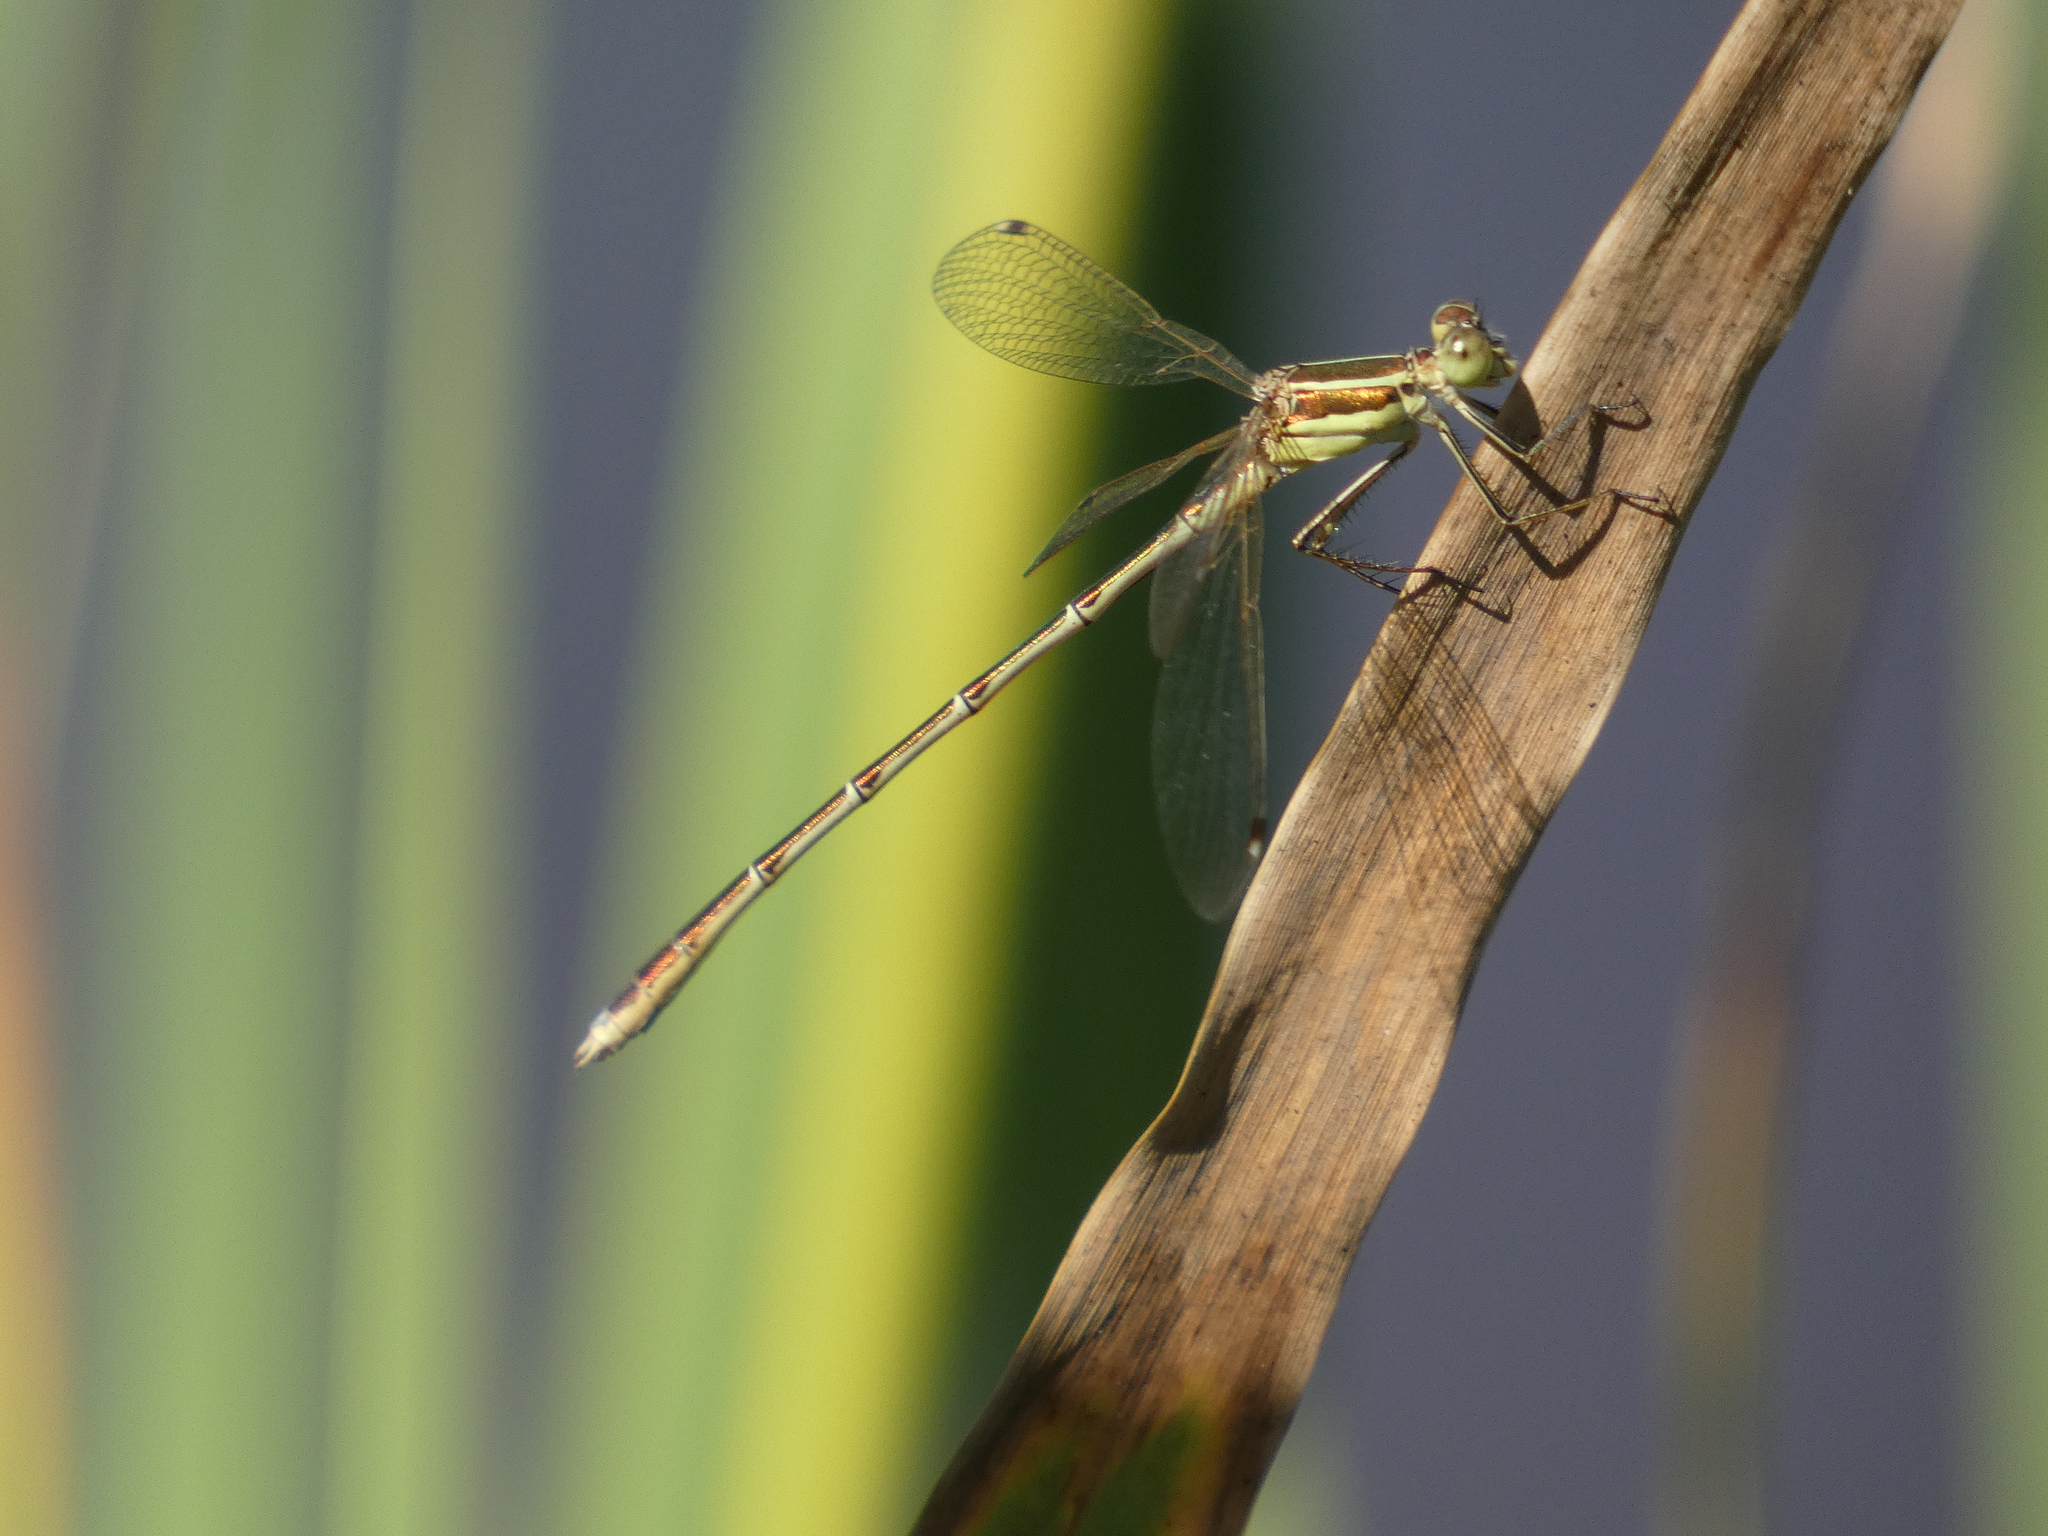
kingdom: Animalia
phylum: Arthropoda
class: Insecta
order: Odonata
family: Lestidae
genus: Lestes
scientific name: Lestes barbarus
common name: Migrant spreadwing
